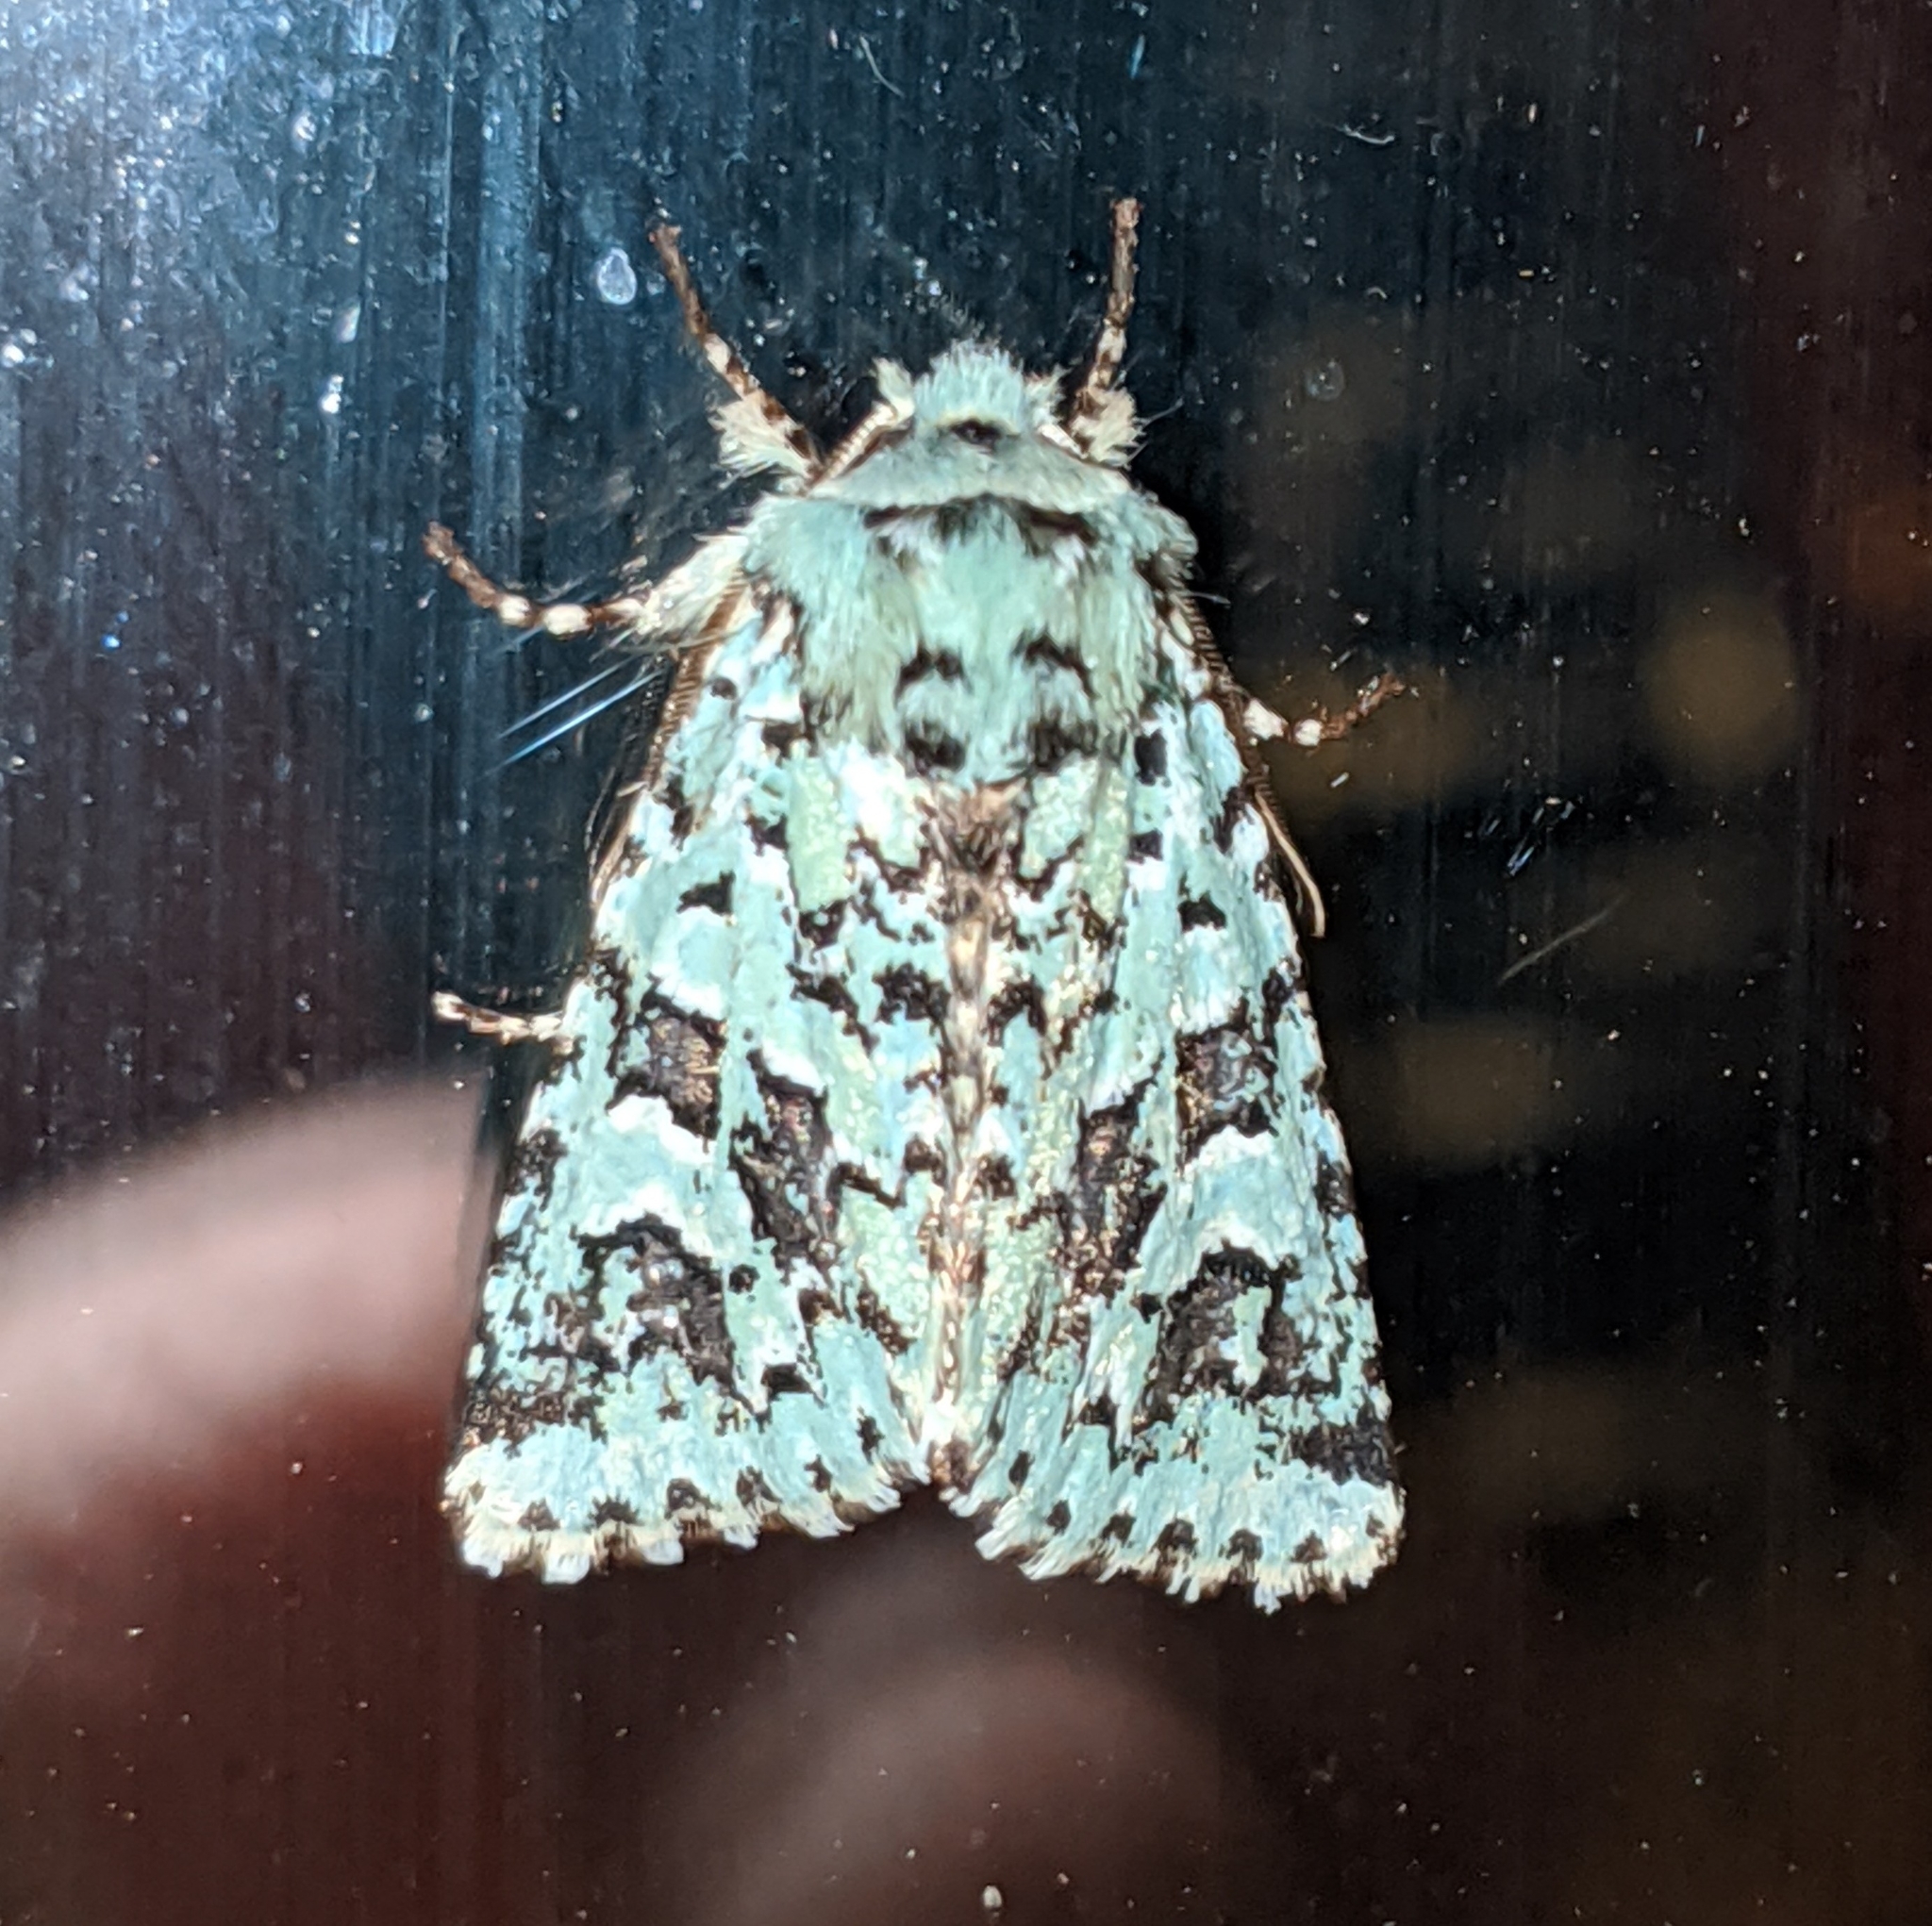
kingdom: Animalia
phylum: Arthropoda
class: Insecta
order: Lepidoptera
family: Noctuidae
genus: Feralia
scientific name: Feralia comstocki
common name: Comstock's sallow
